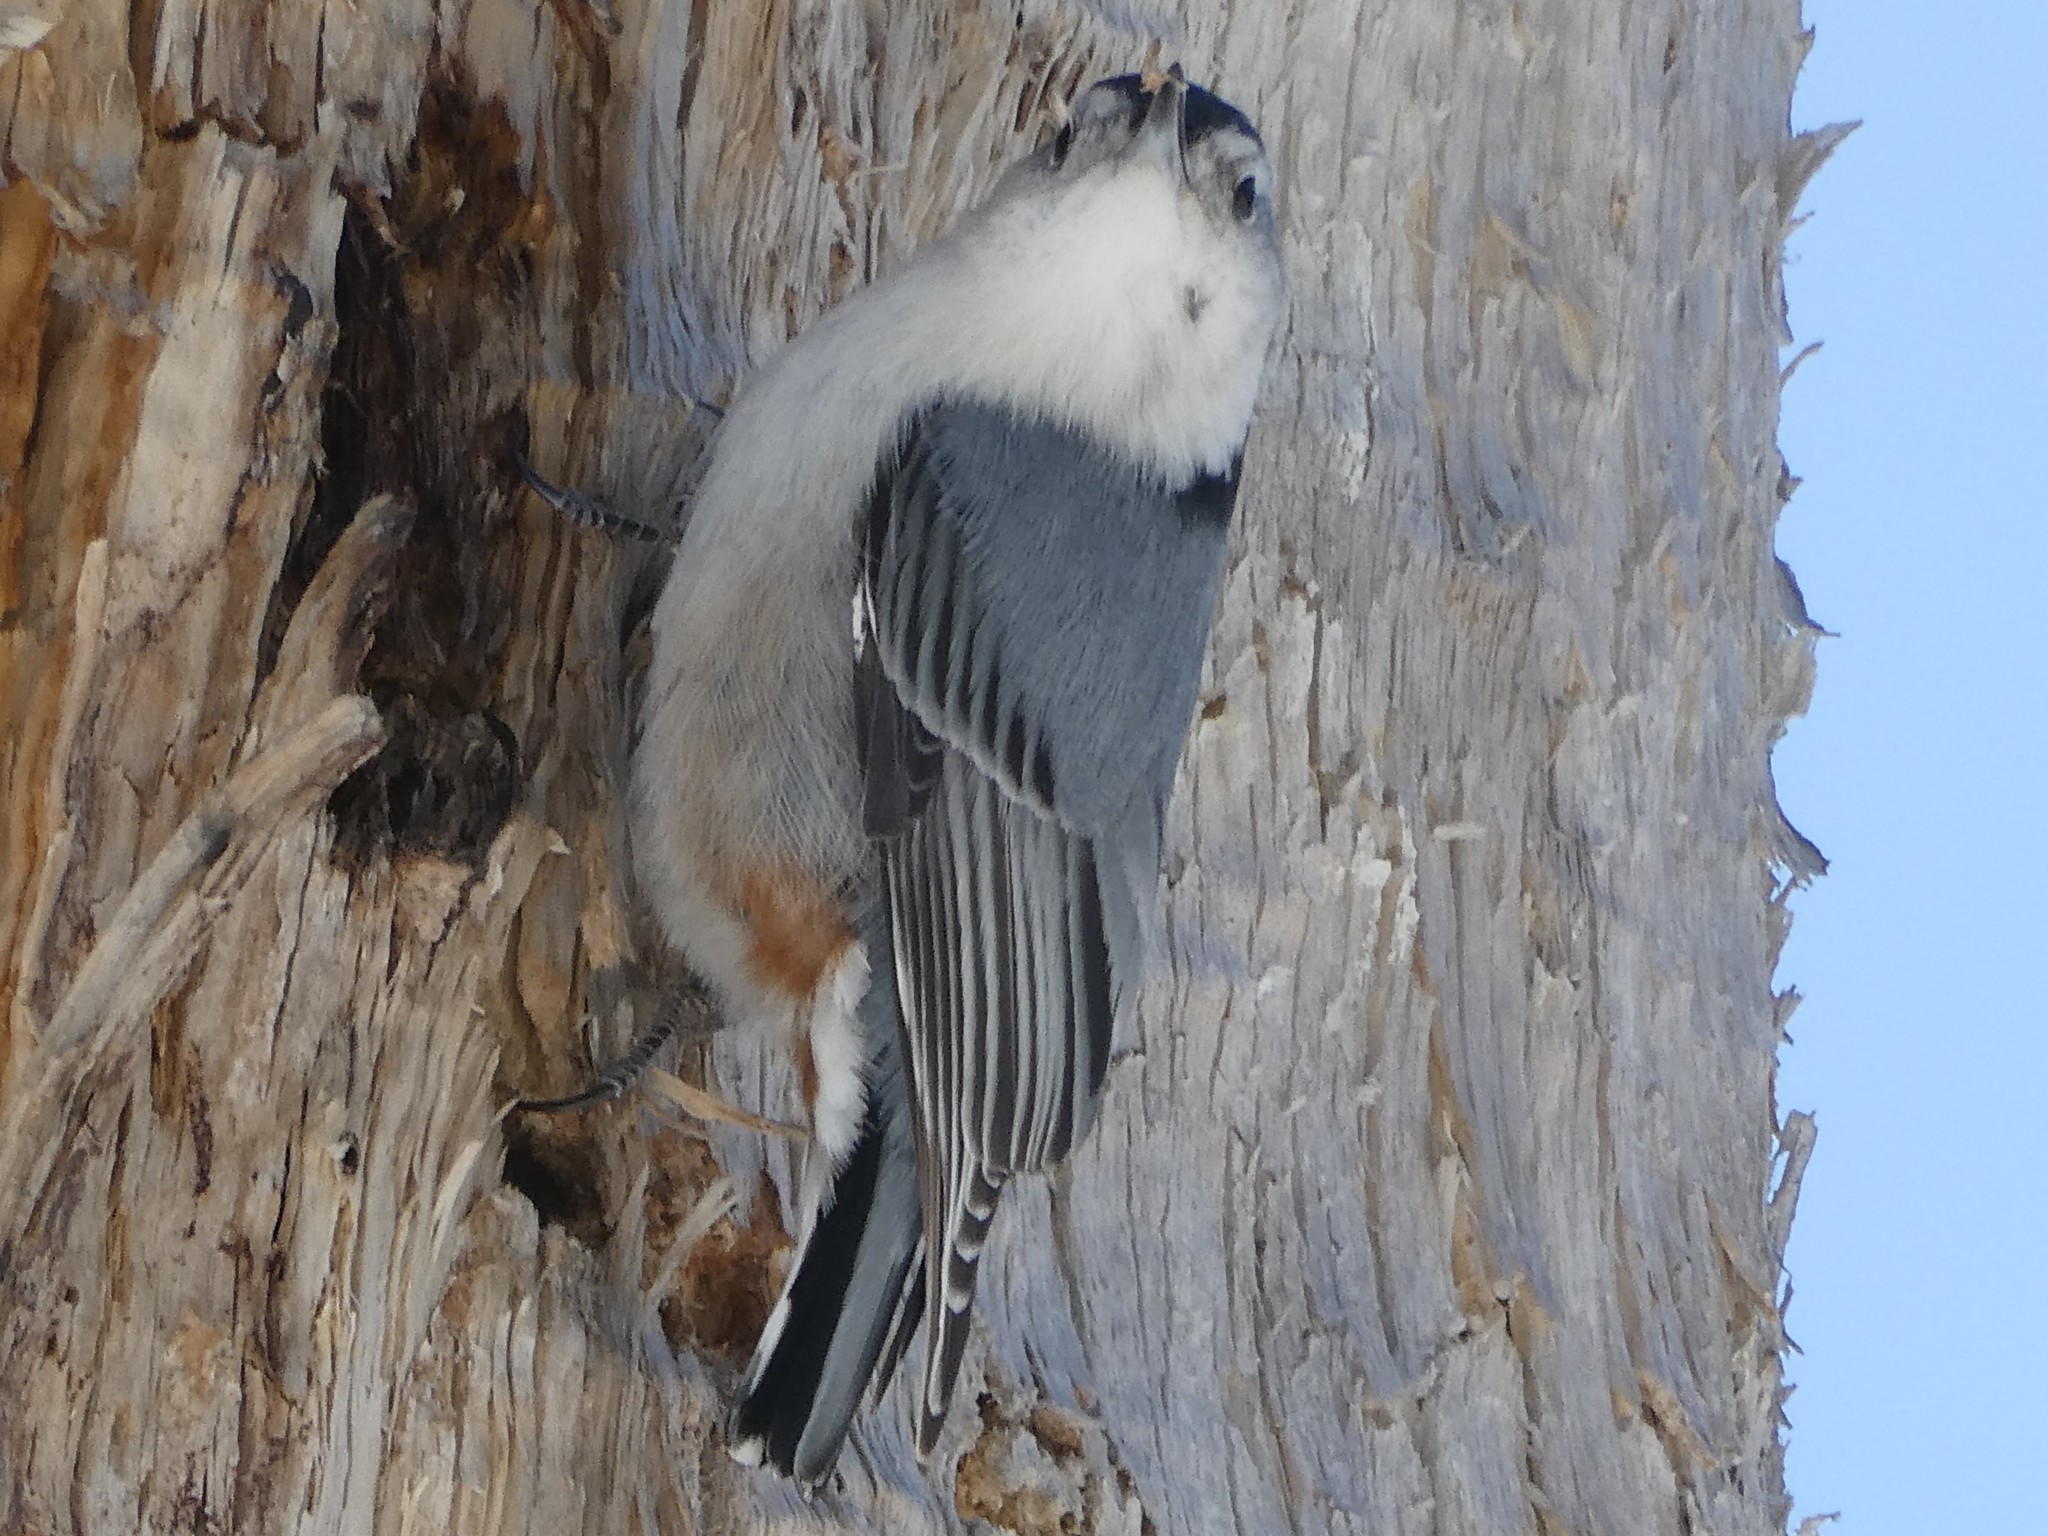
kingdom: Animalia
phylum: Chordata
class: Aves
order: Passeriformes
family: Sittidae
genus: Sitta
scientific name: Sitta carolinensis
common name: White-breasted nuthatch
